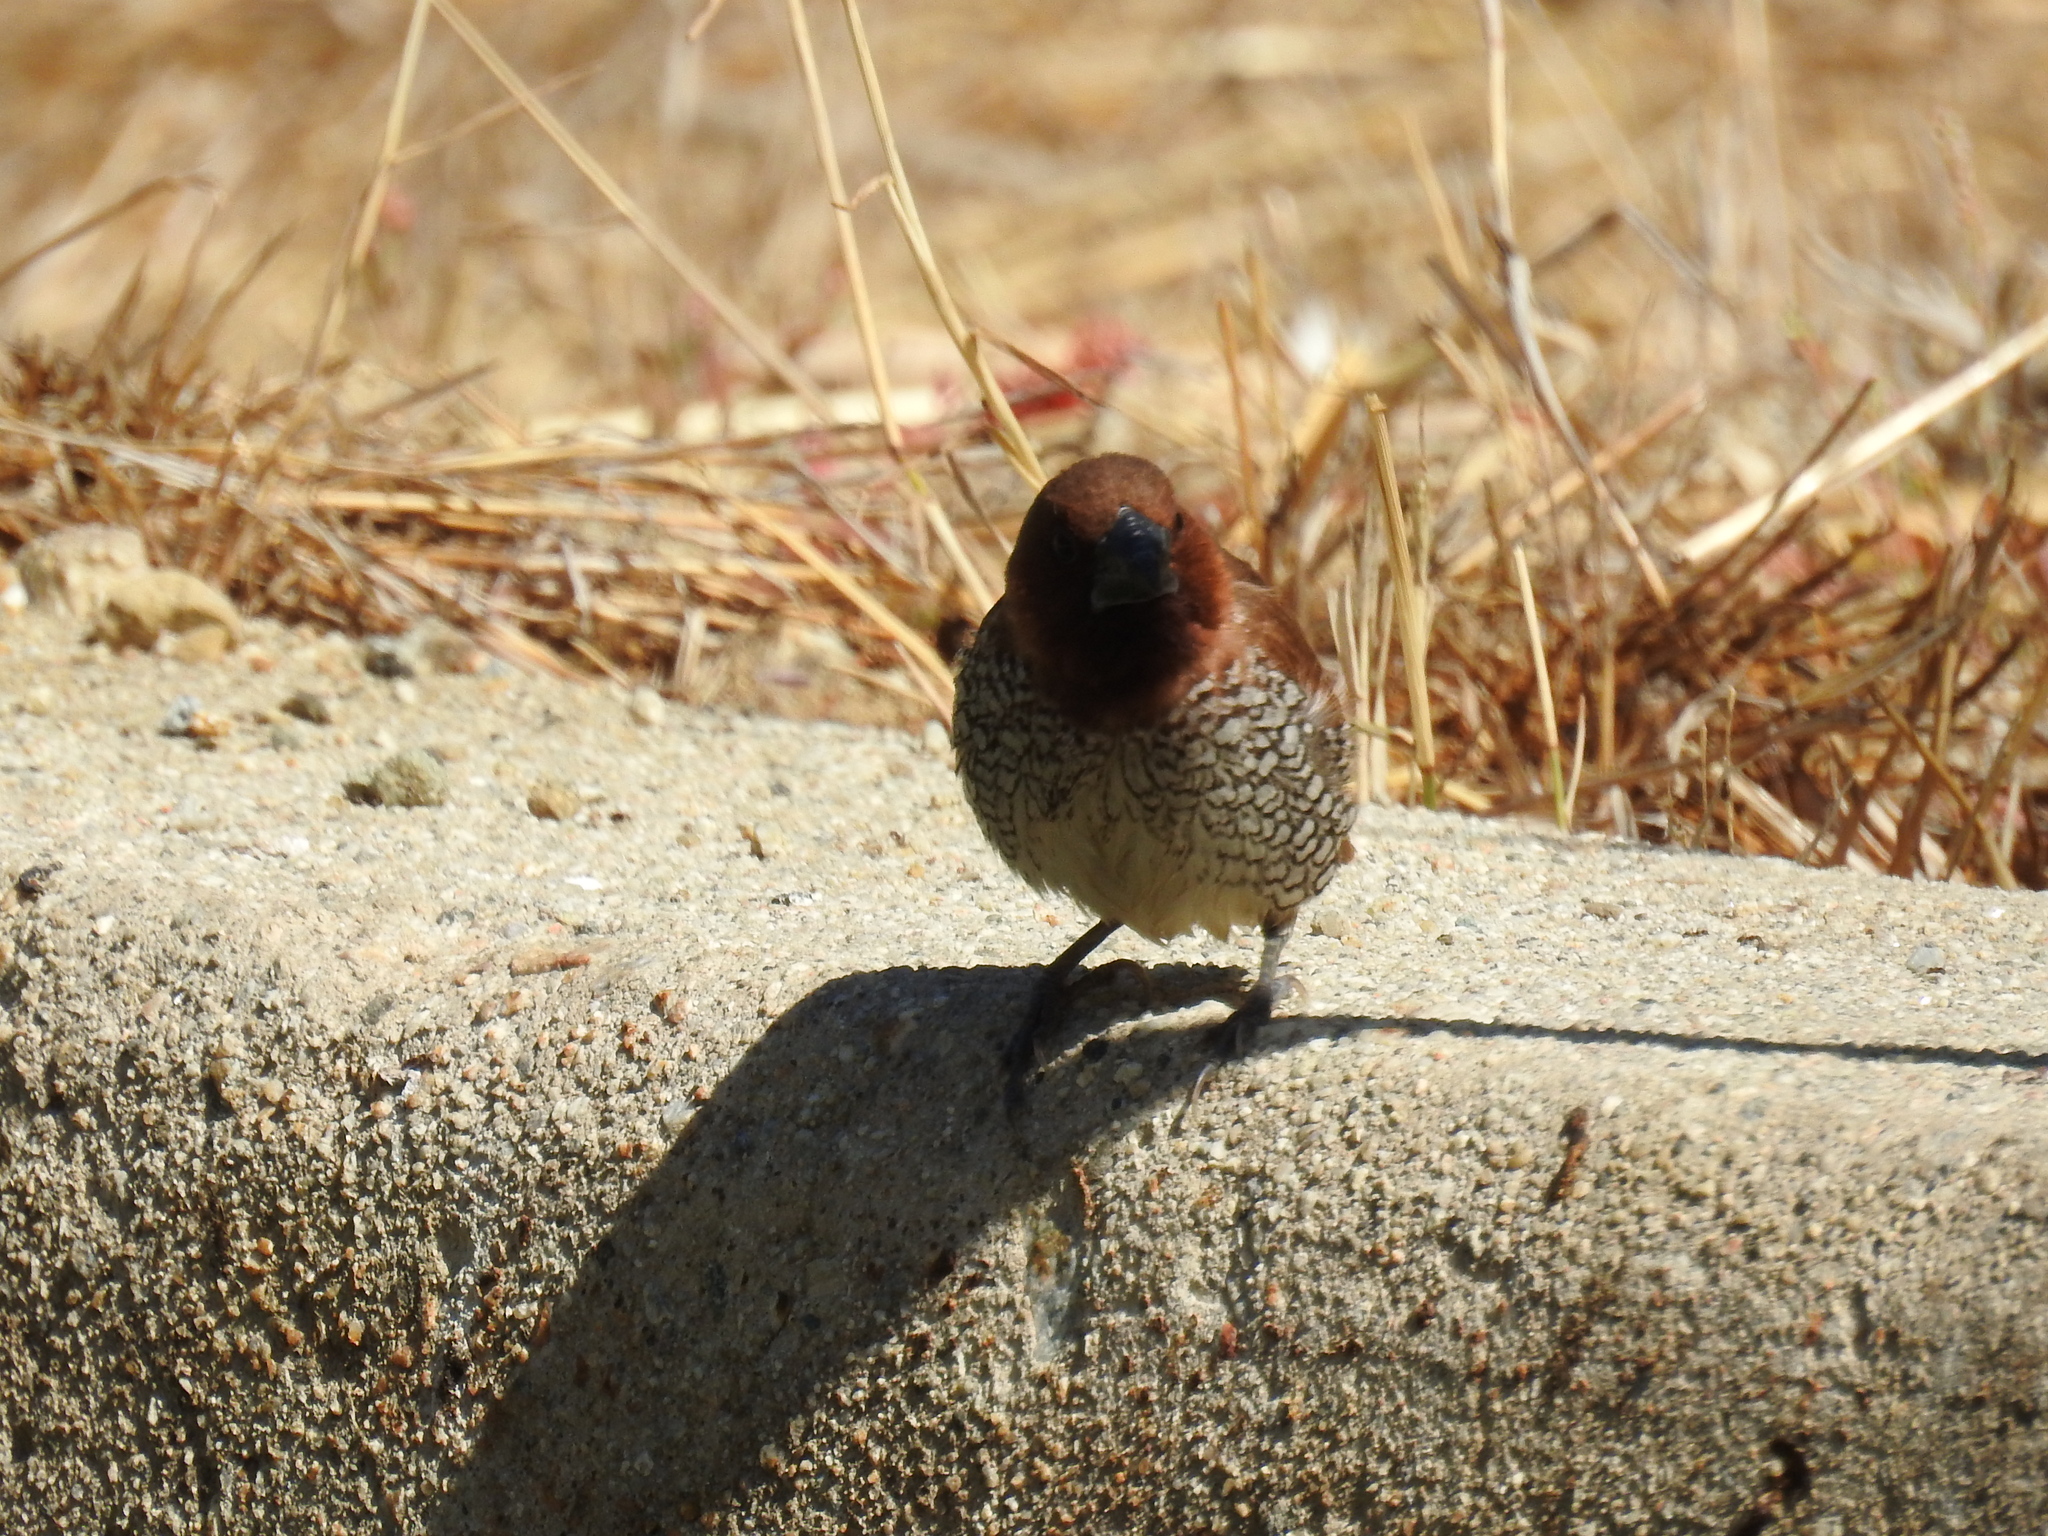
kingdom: Animalia
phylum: Chordata
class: Aves
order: Passeriformes
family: Estrildidae
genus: Lonchura
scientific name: Lonchura punctulata
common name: Scaly-breasted munia
